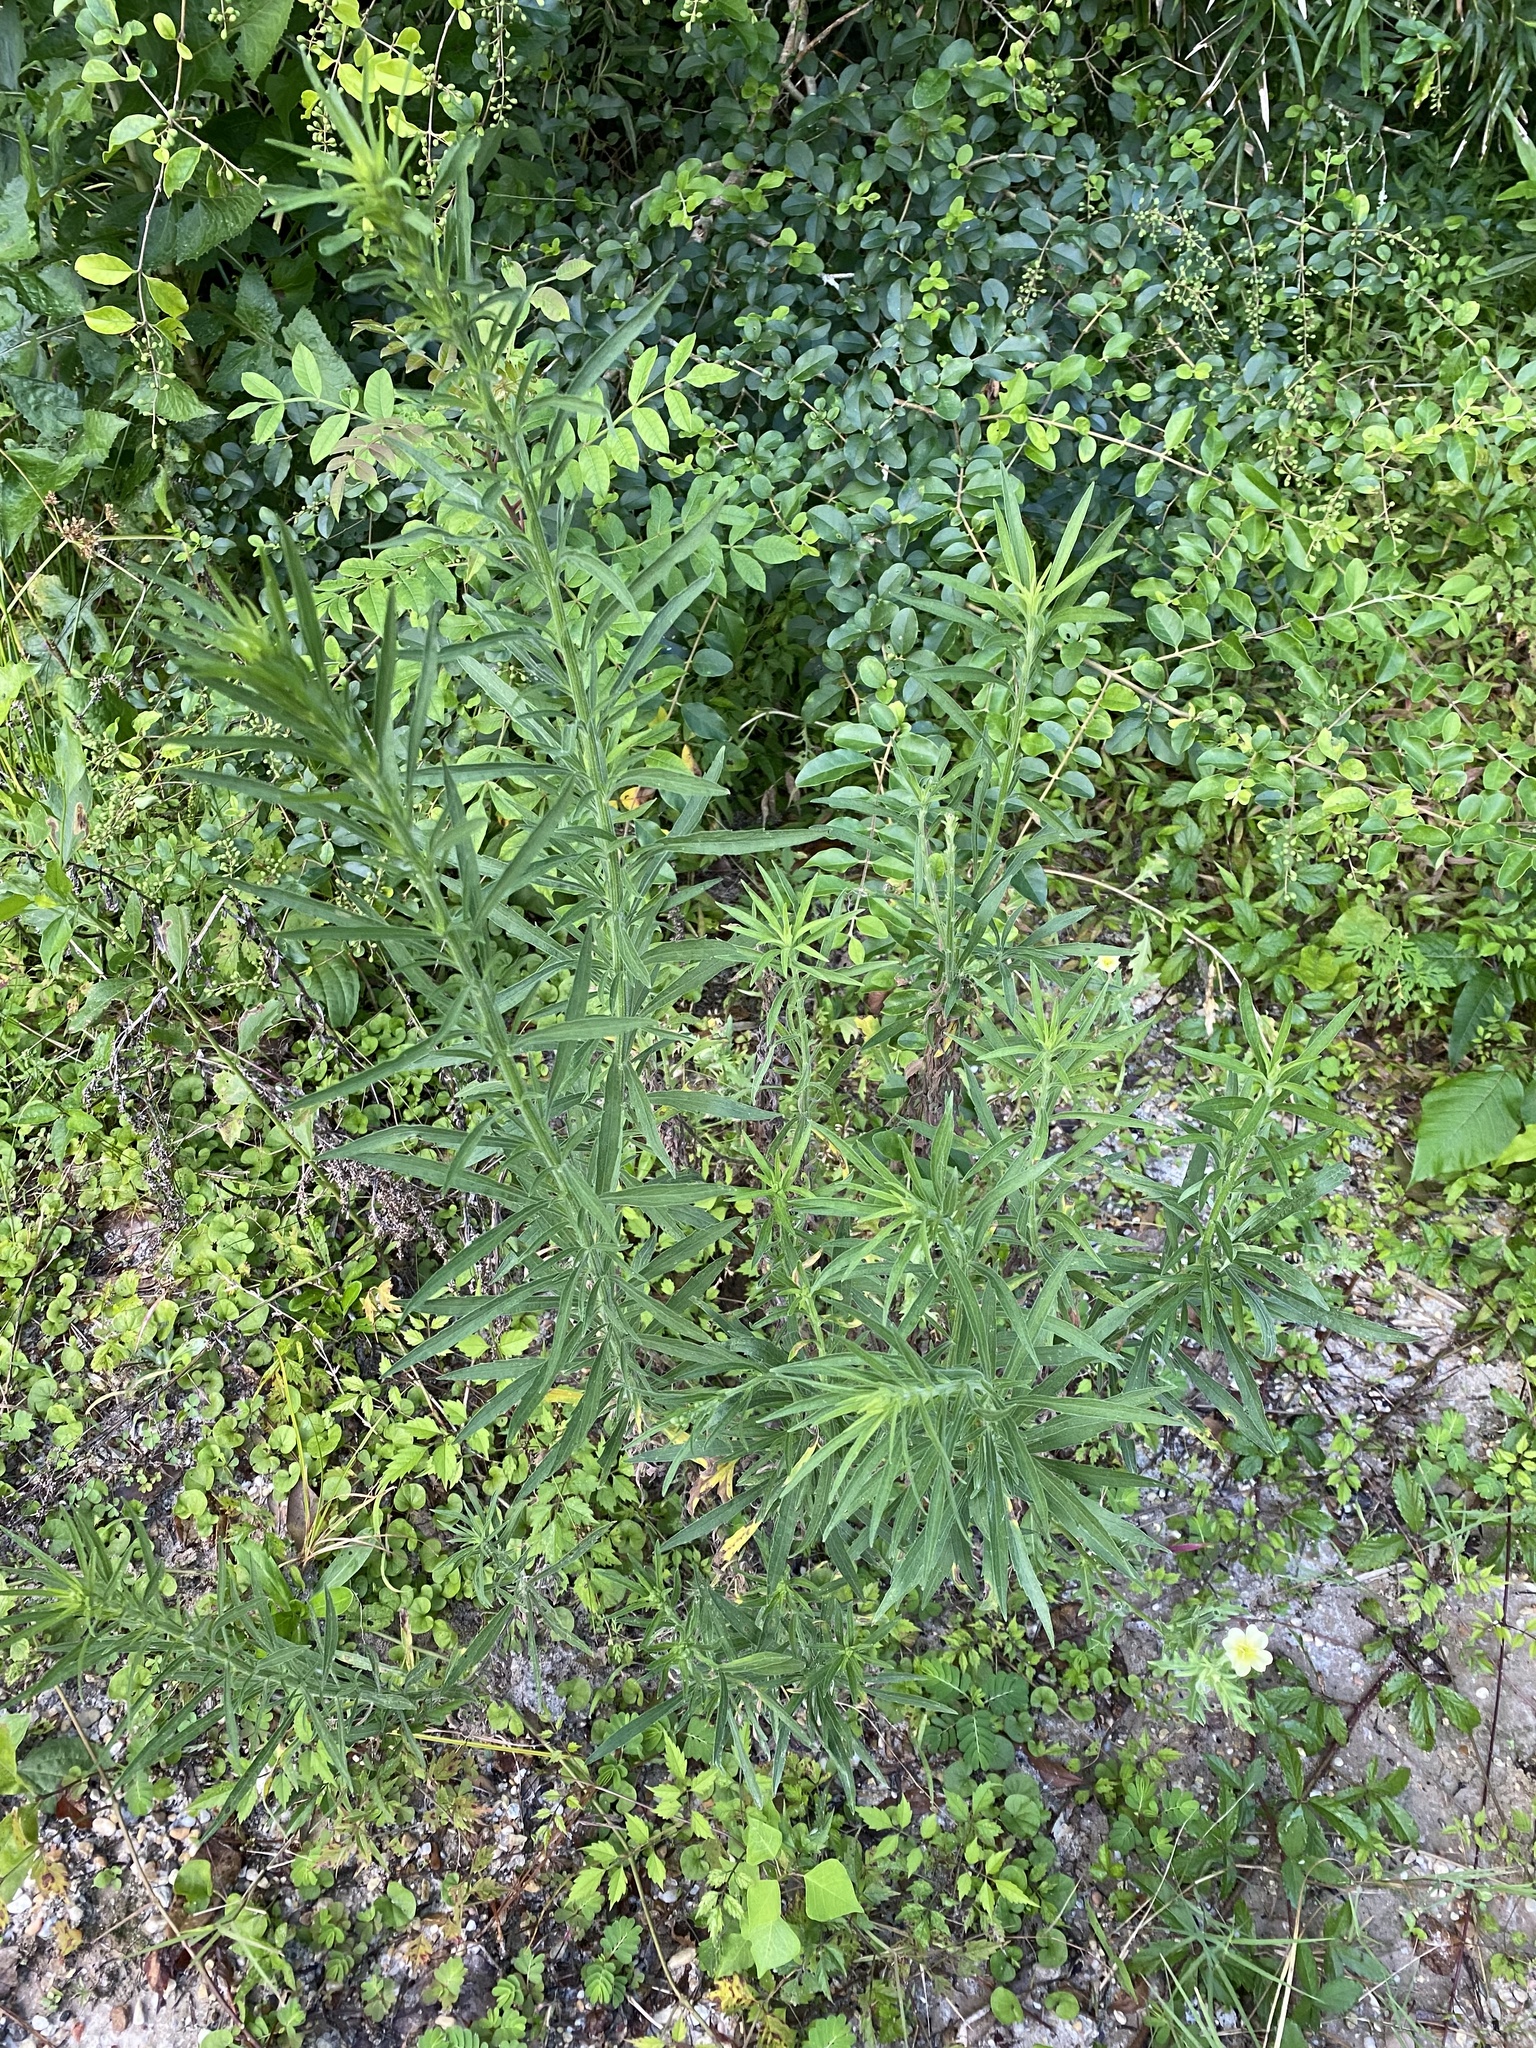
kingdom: Plantae
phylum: Tracheophyta
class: Magnoliopsida
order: Myrtales
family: Onagraceae
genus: Oenothera
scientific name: Oenothera laciniata
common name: Cut-leaved evening-primrose
